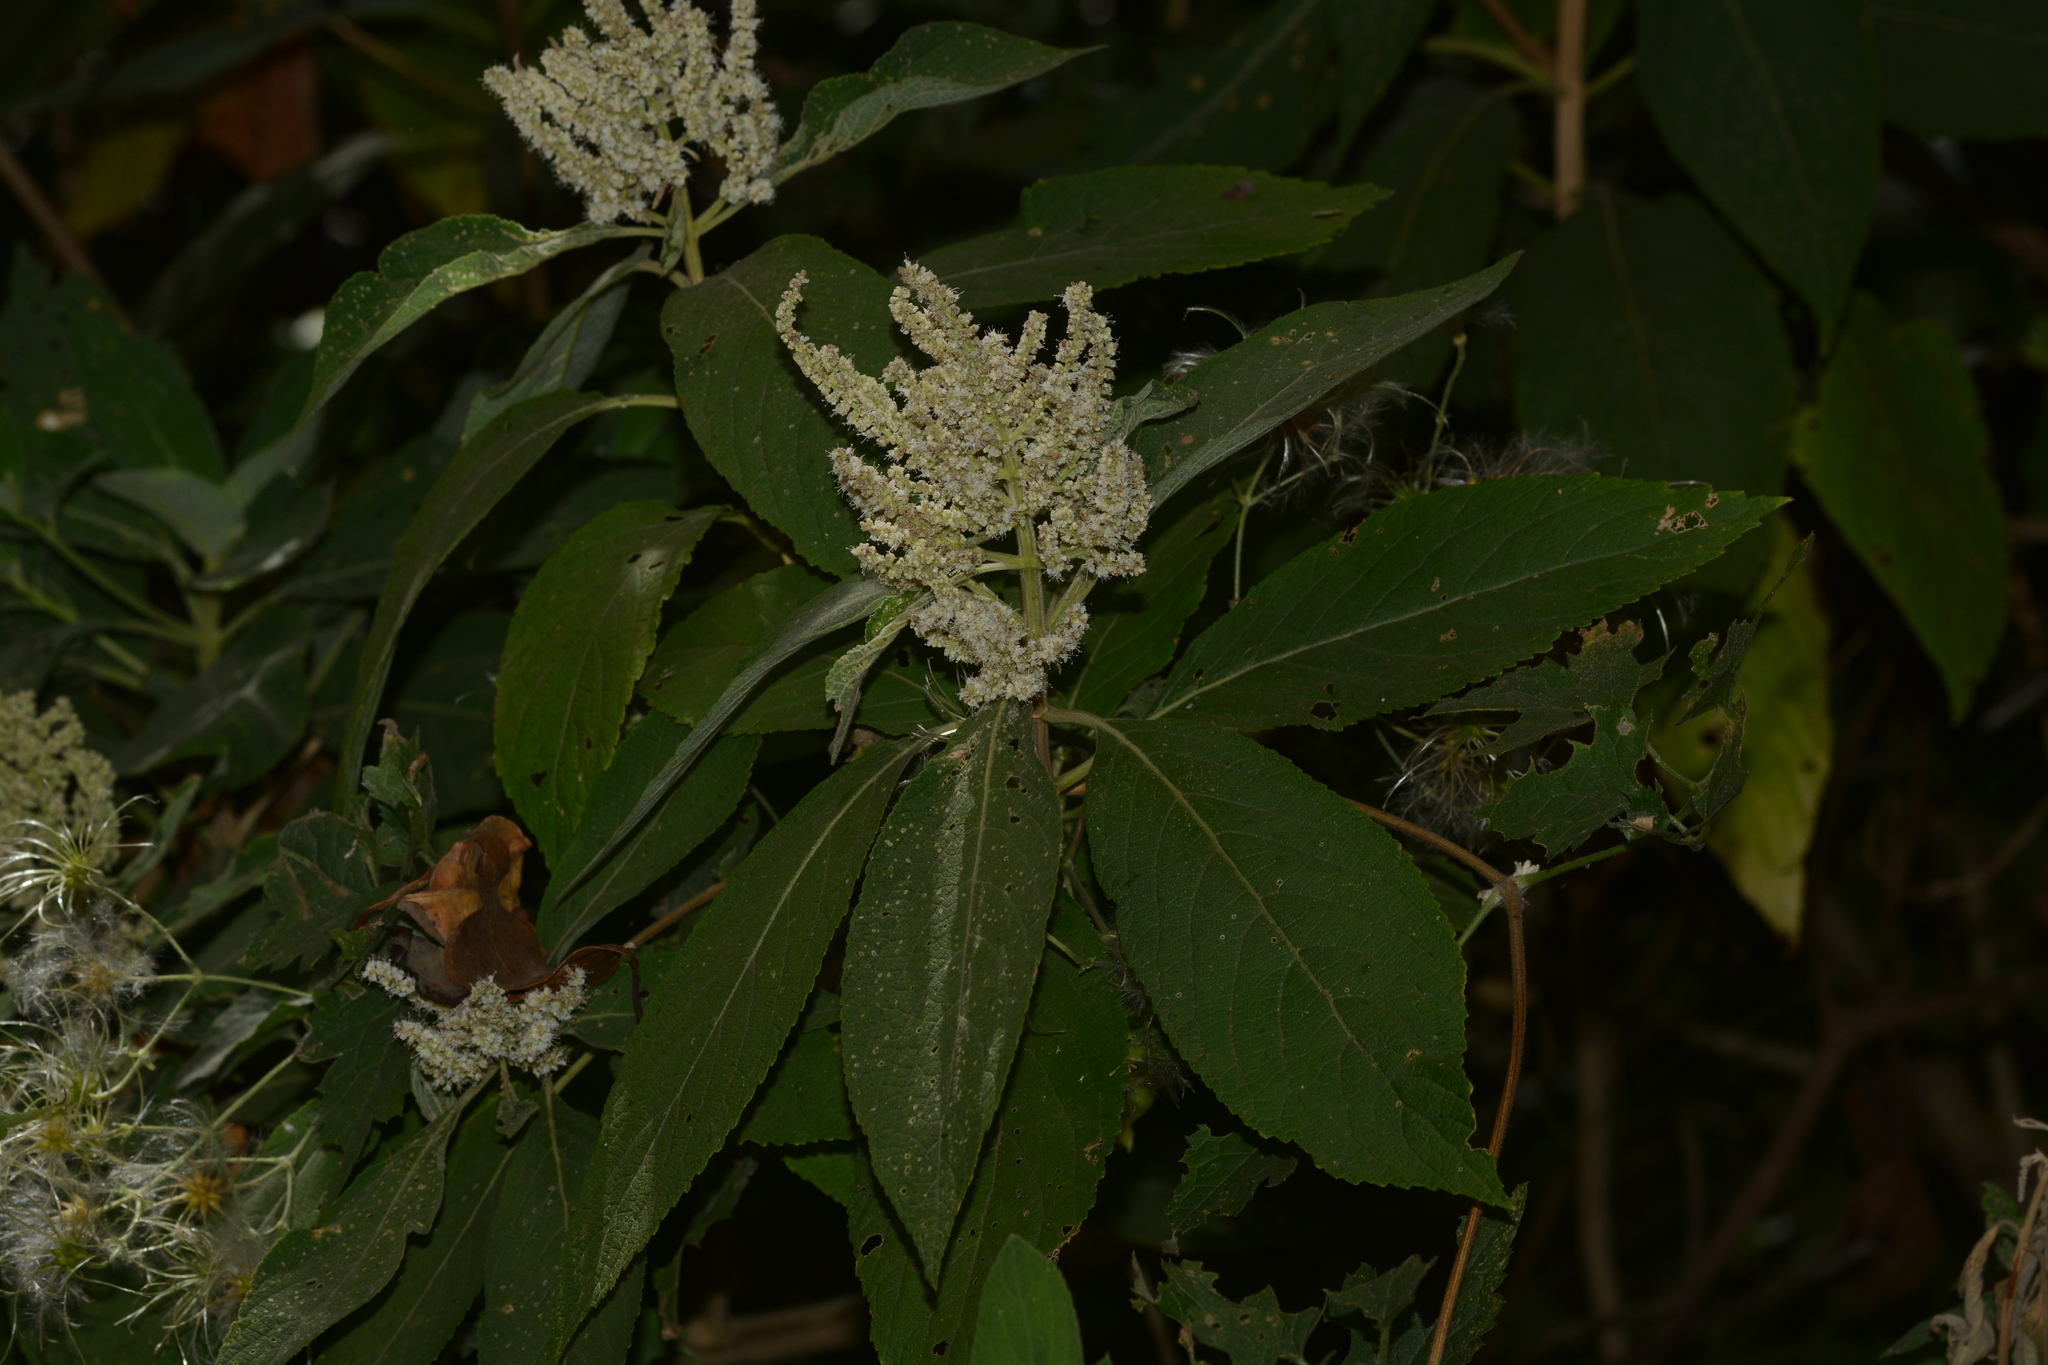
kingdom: Plantae
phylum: Tracheophyta
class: Magnoliopsida
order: Lamiales
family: Lamiaceae
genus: Colebrookea
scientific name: Colebrookea oppositifolia
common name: Indian squirrel tail
